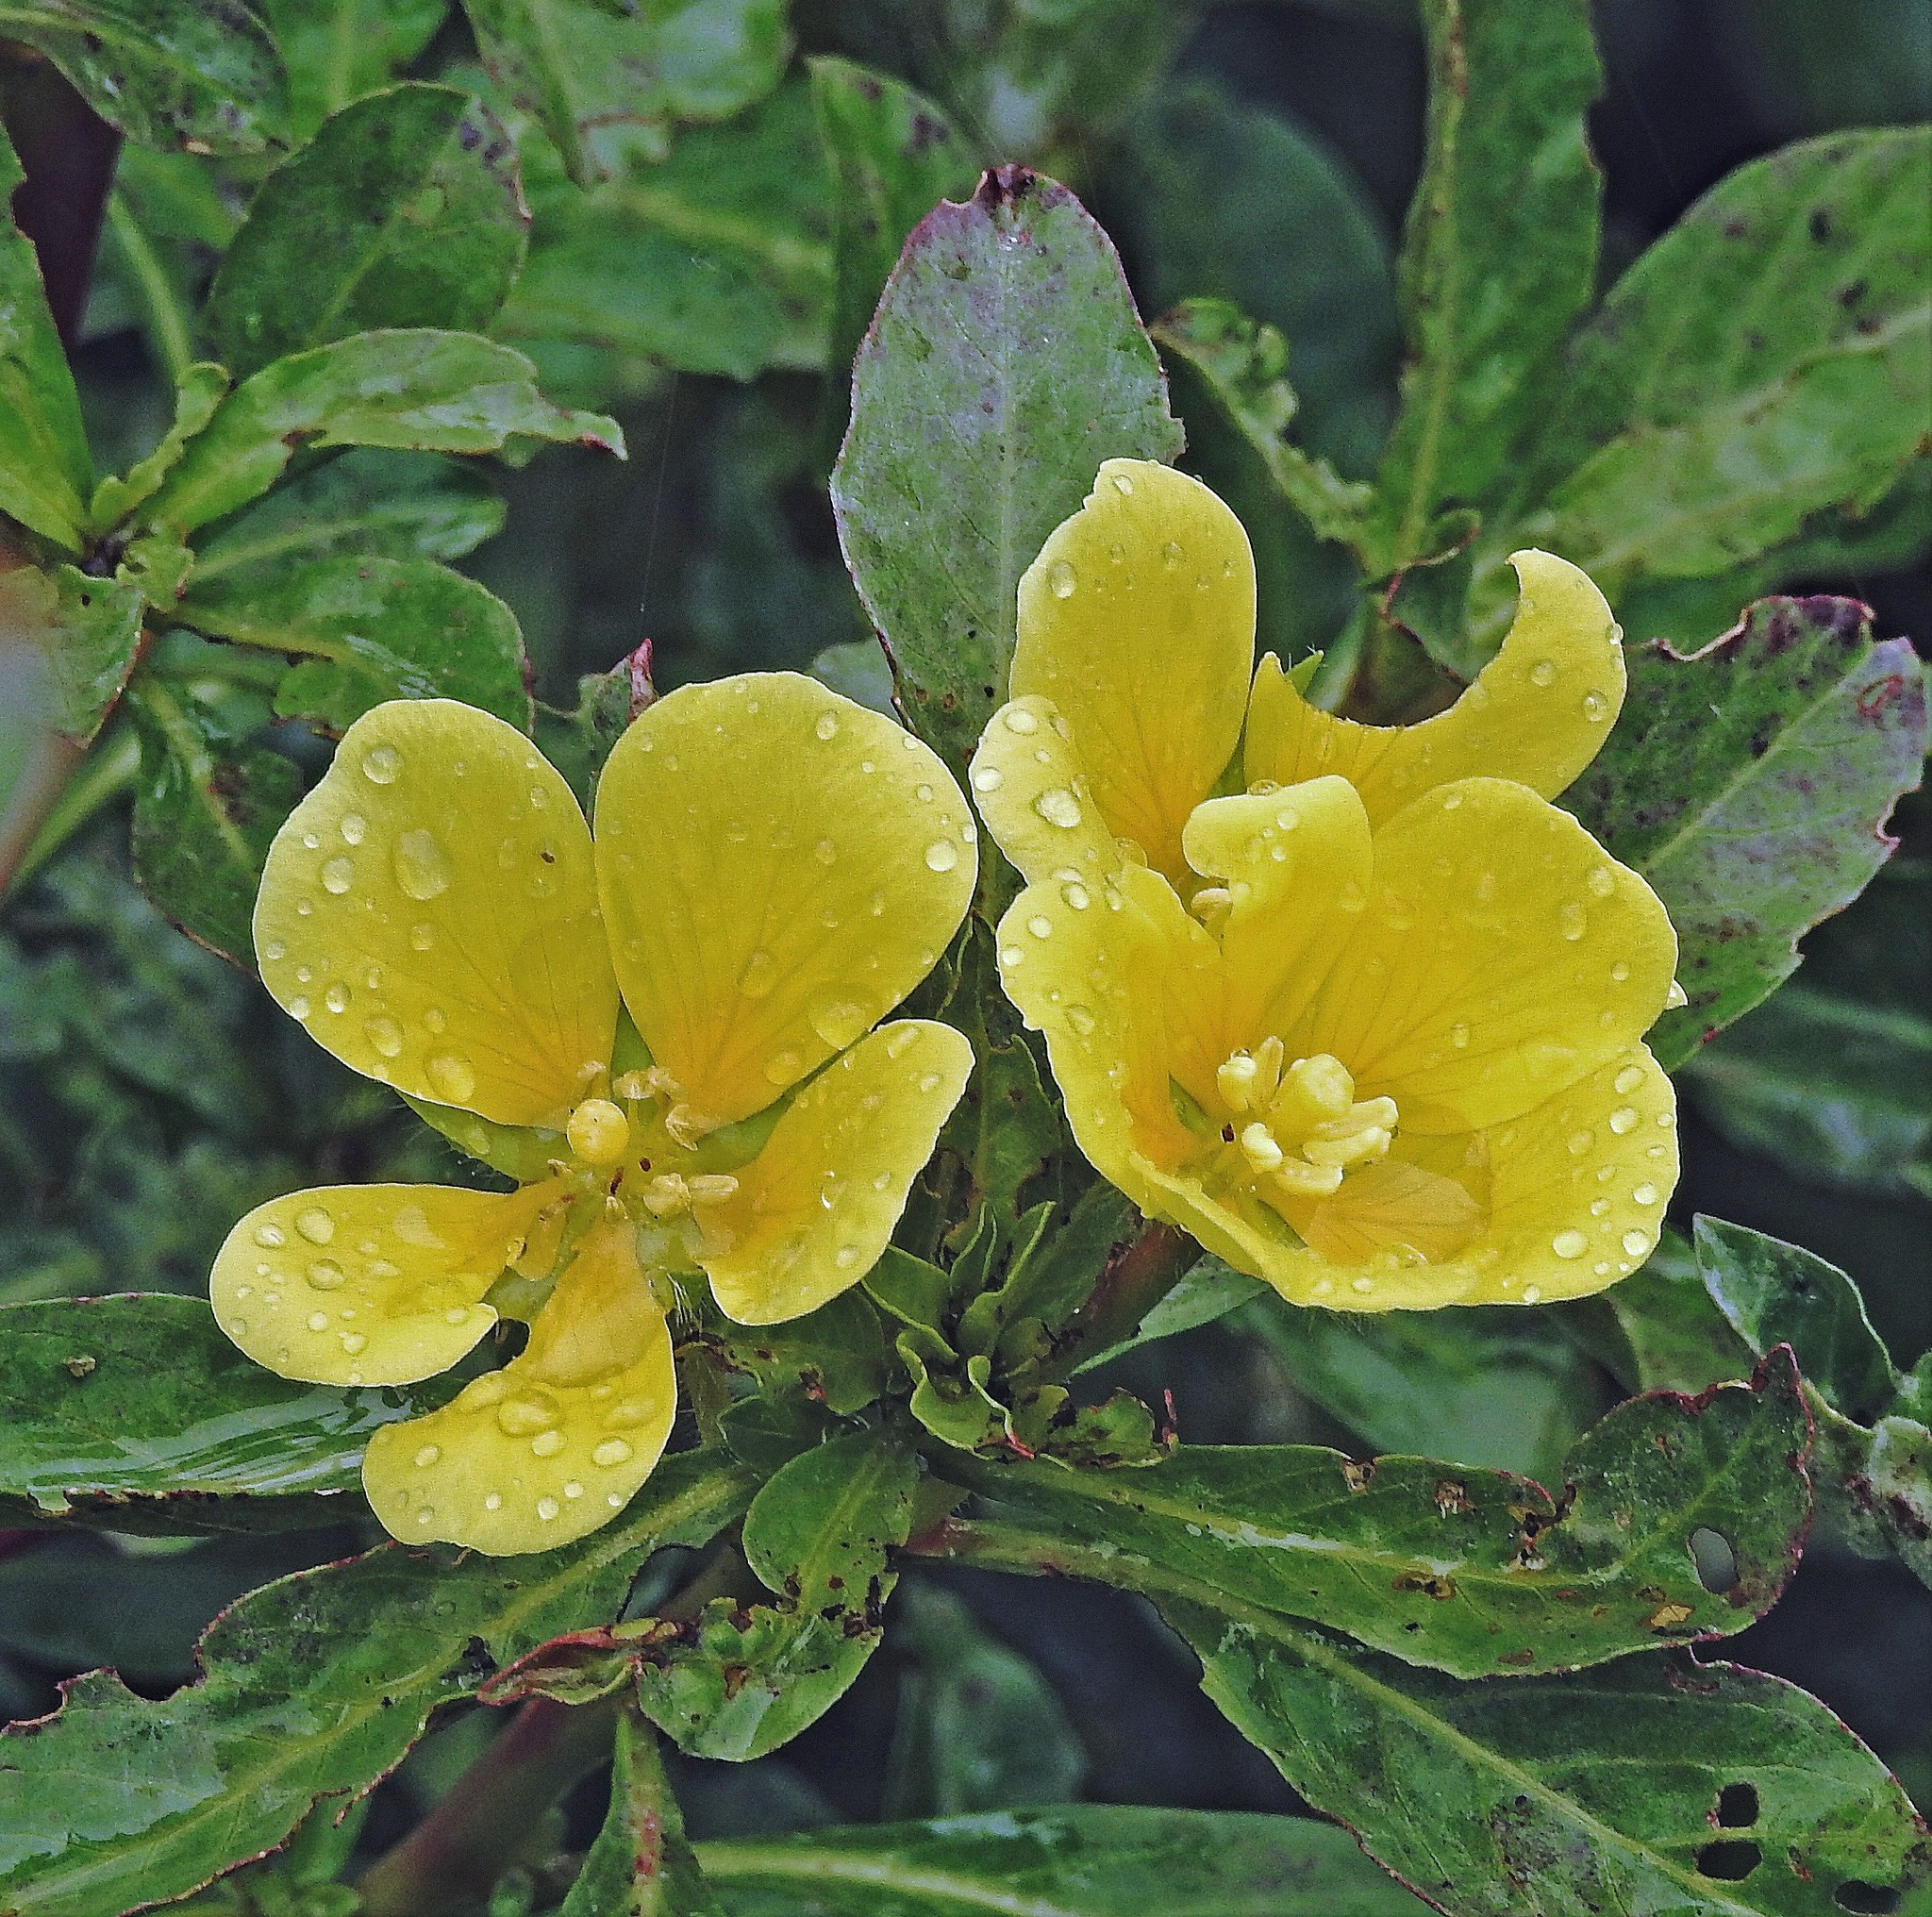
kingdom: Plantae
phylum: Tracheophyta
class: Magnoliopsida
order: Myrtales
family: Onagraceae
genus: Ludwigia
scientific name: Ludwigia peploides
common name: Floating primrose-willow
